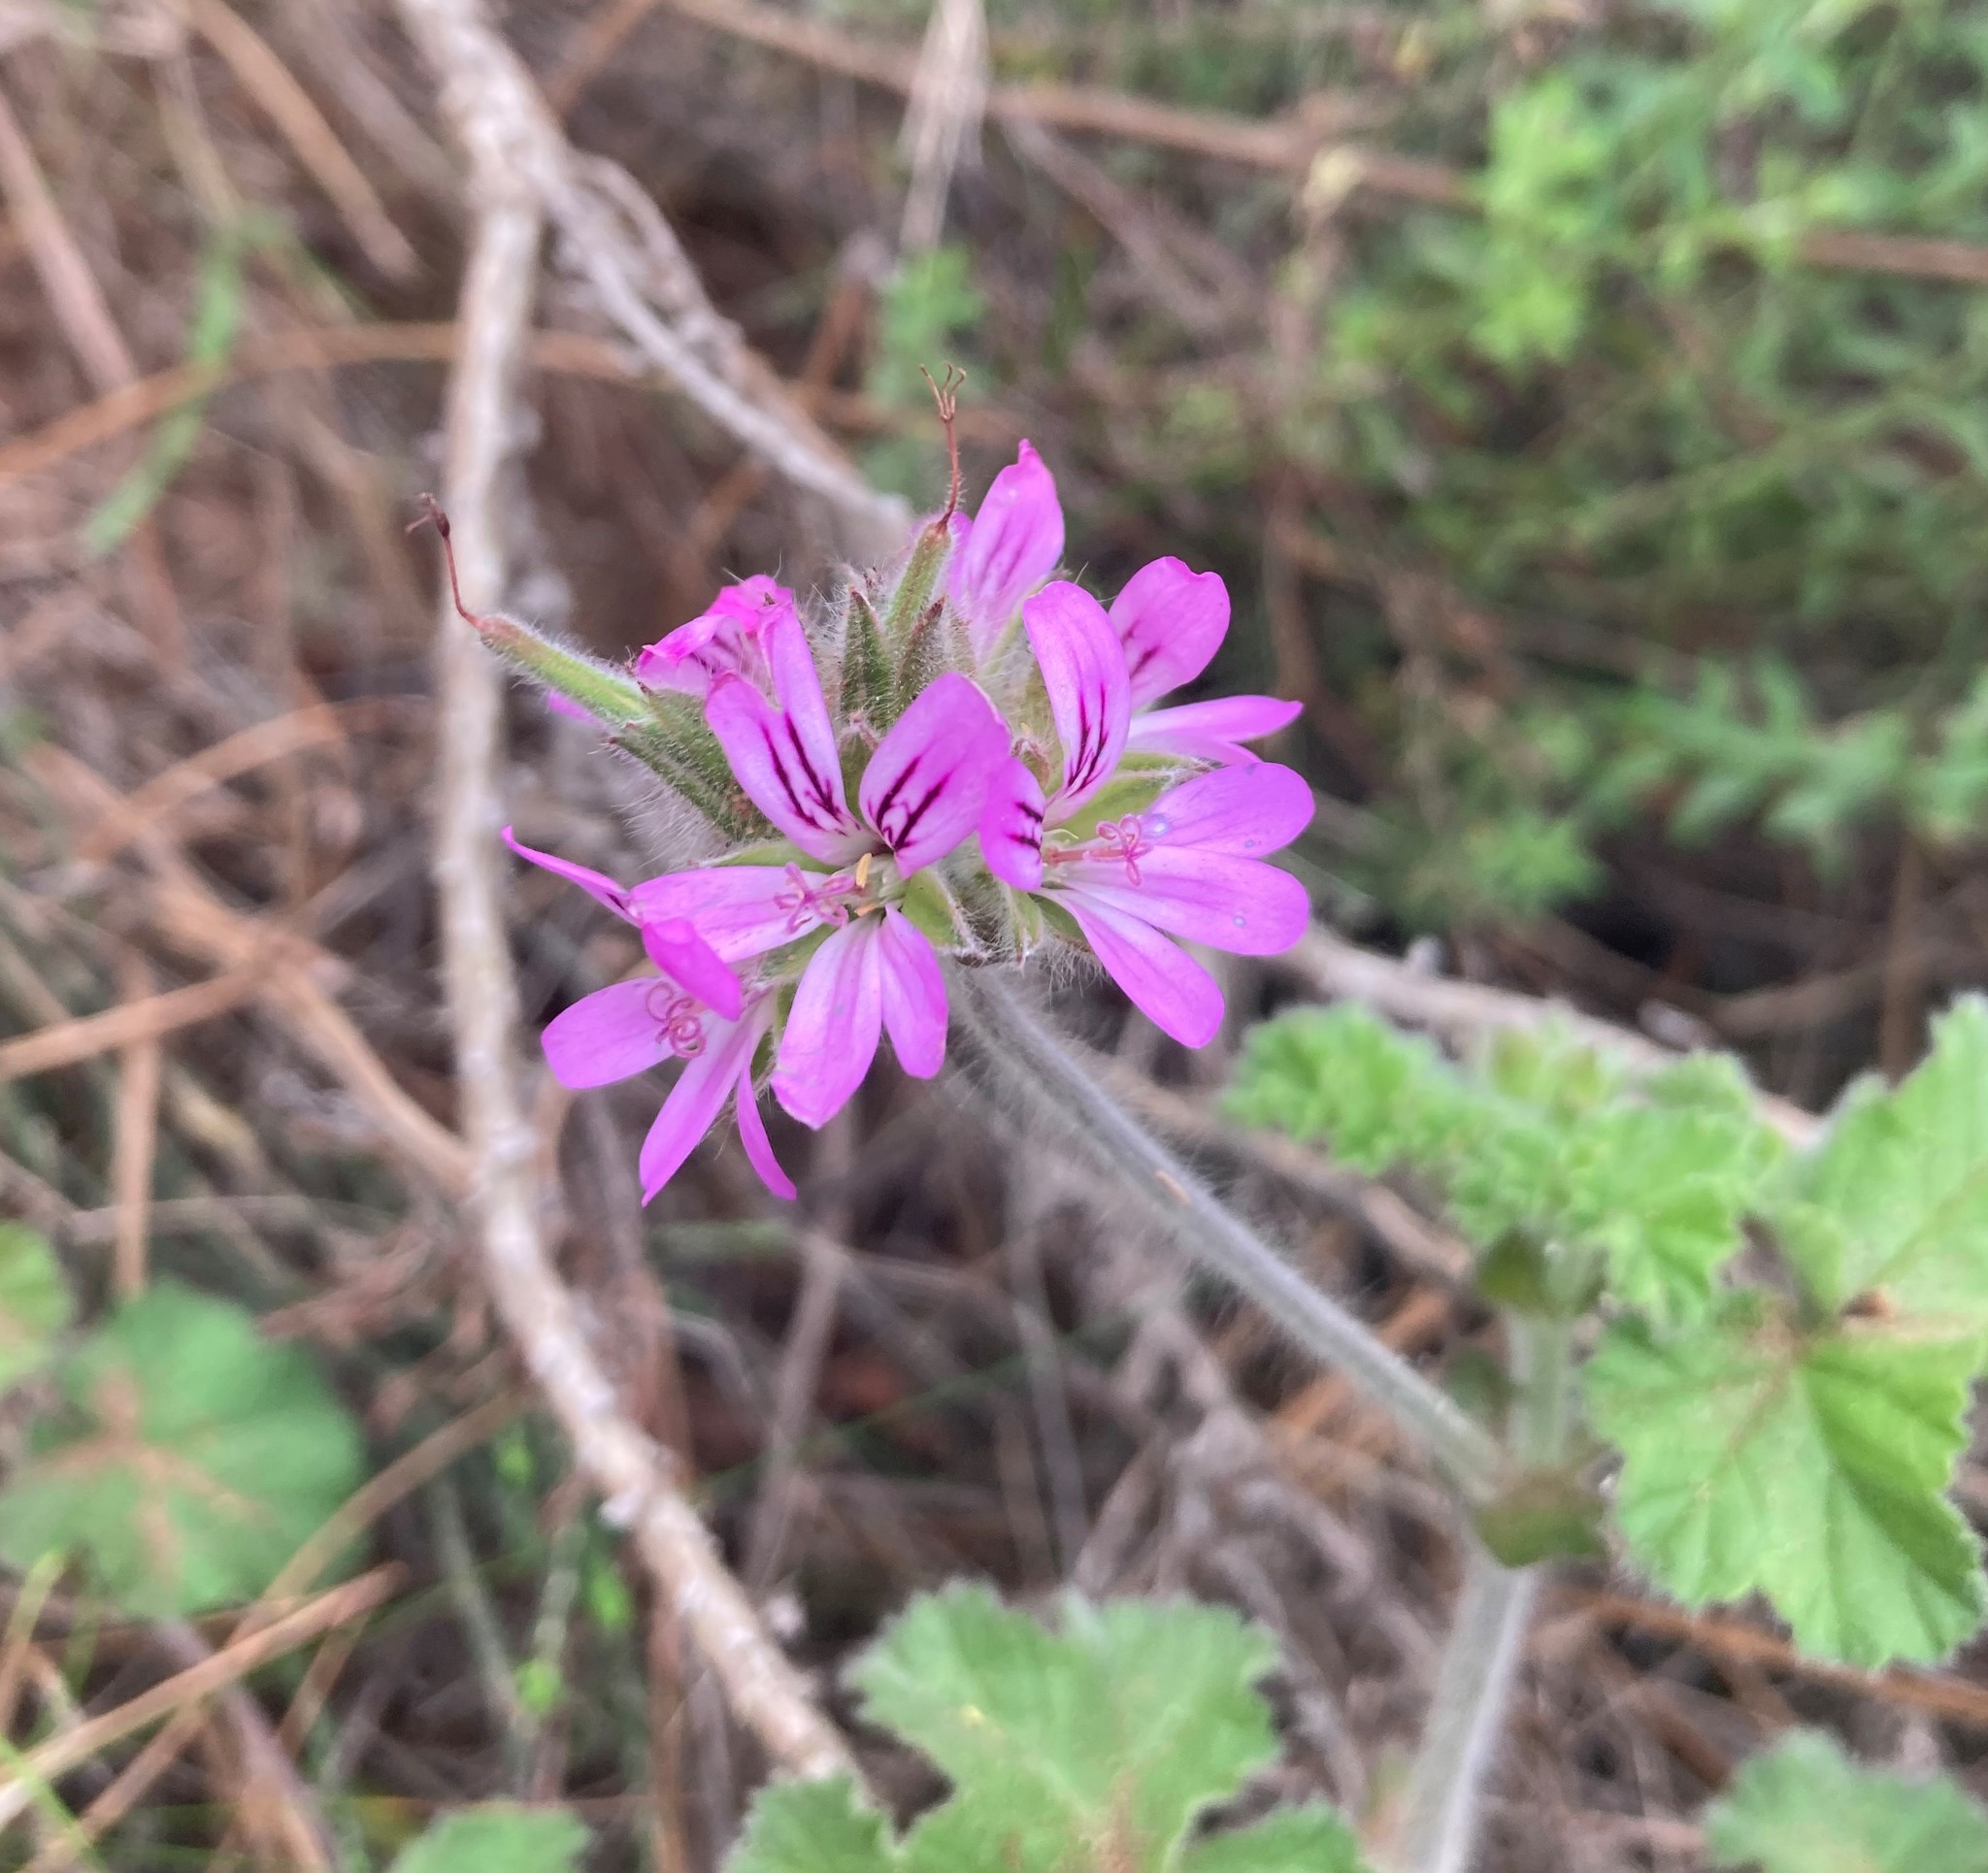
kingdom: Plantae
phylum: Tracheophyta
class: Magnoliopsida
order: Geraniales
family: Geraniaceae
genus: Pelargonium
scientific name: Pelargonium capitatum
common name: Rose scented geranium
